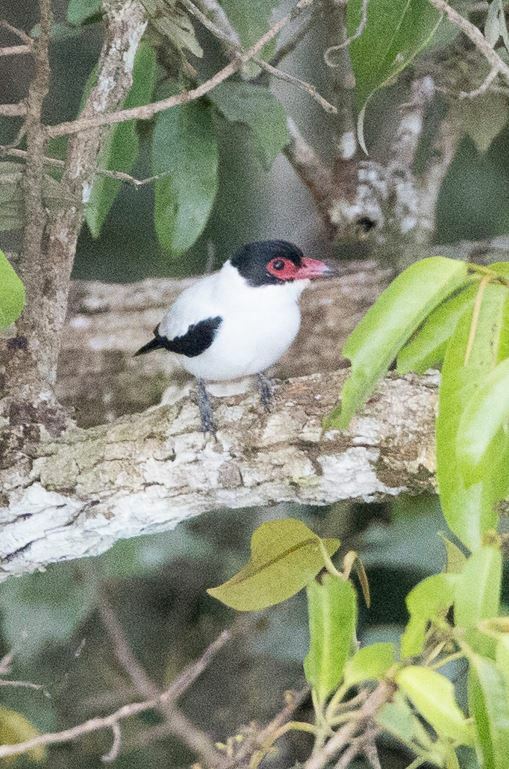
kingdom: Animalia
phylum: Chordata
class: Aves
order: Passeriformes
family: Cotingidae
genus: Tityra
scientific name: Tityra cayana
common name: Black-tailed tityra
